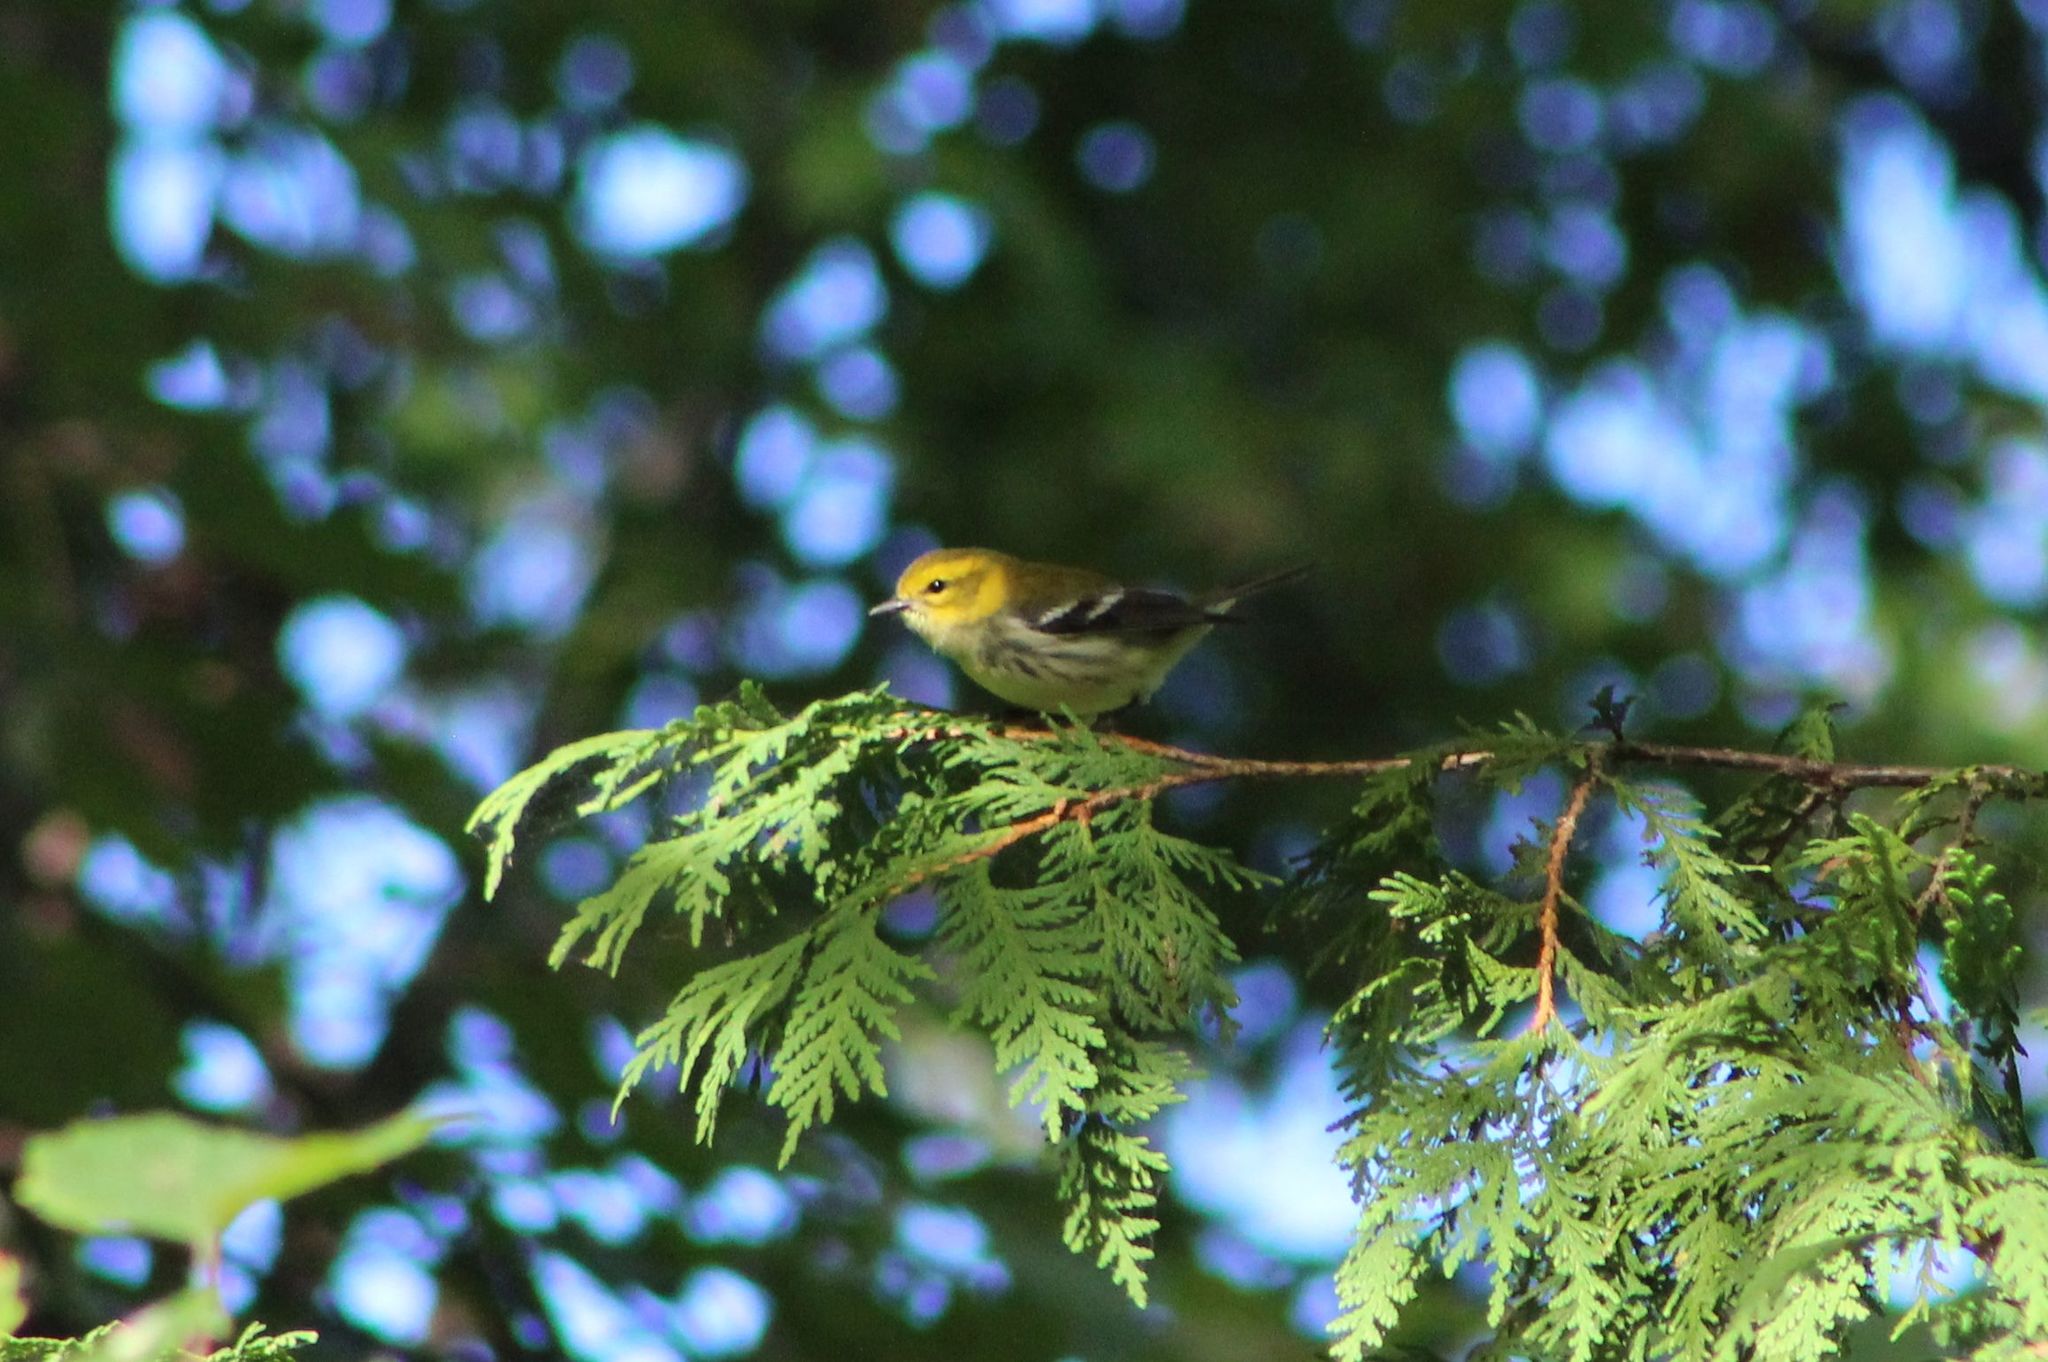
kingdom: Animalia
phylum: Chordata
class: Aves
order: Passeriformes
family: Parulidae
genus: Setophaga
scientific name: Setophaga virens
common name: Black-throated green warbler
